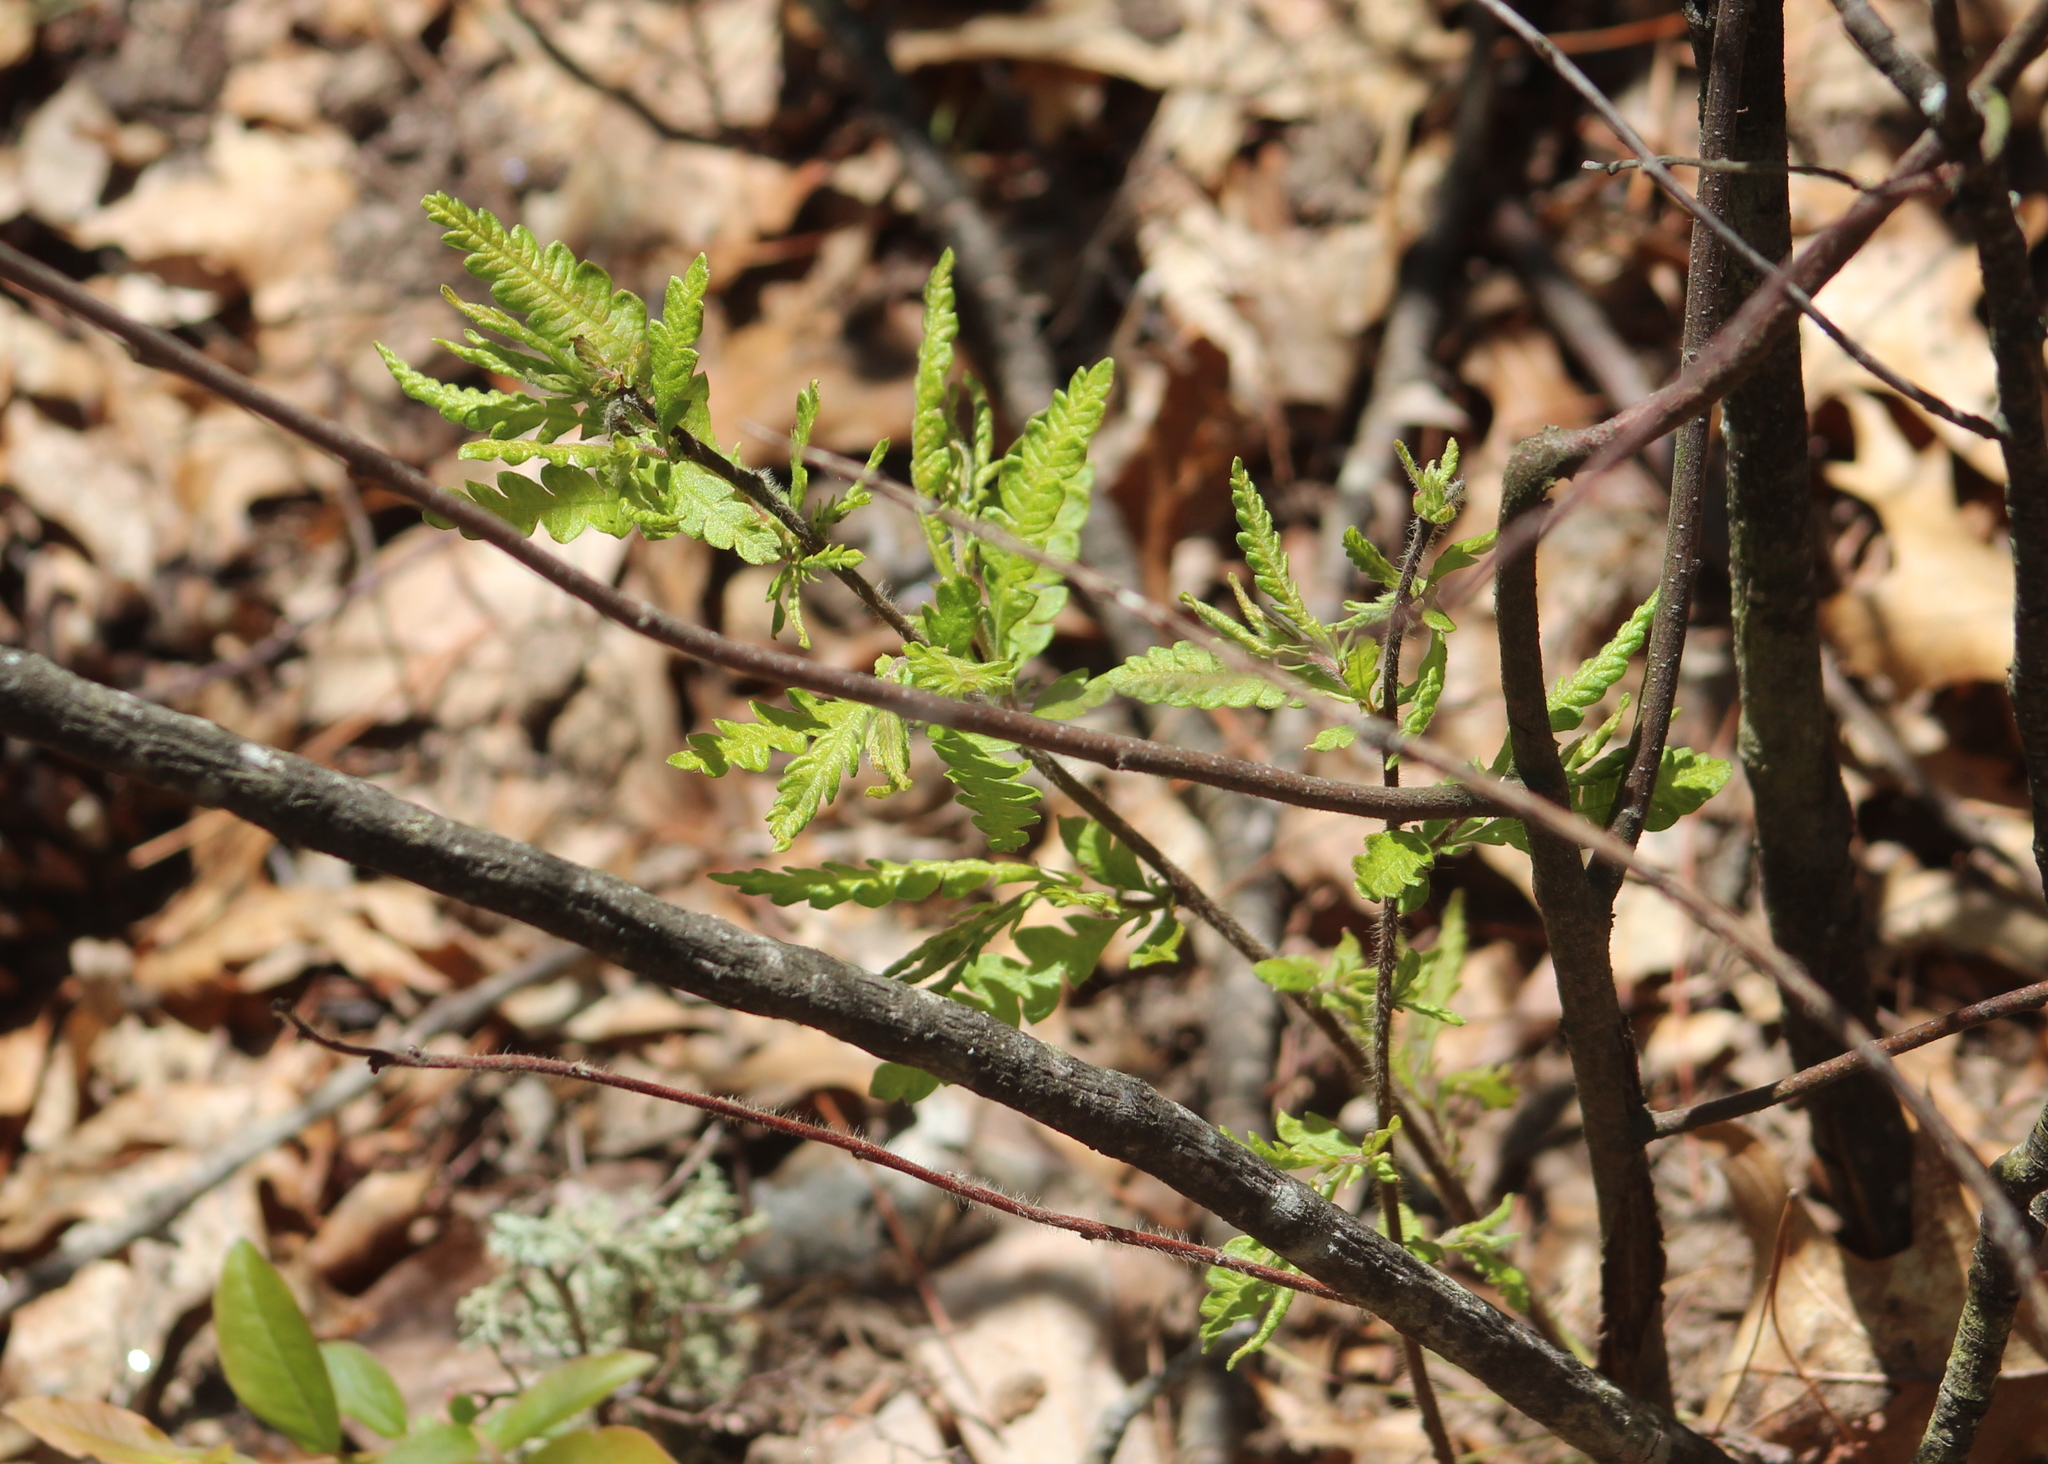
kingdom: Plantae
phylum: Tracheophyta
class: Magnoliopsida
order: Fagales
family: Myricaceae
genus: Comptonia
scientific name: Comptonia peregrina
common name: Sweet-fern
